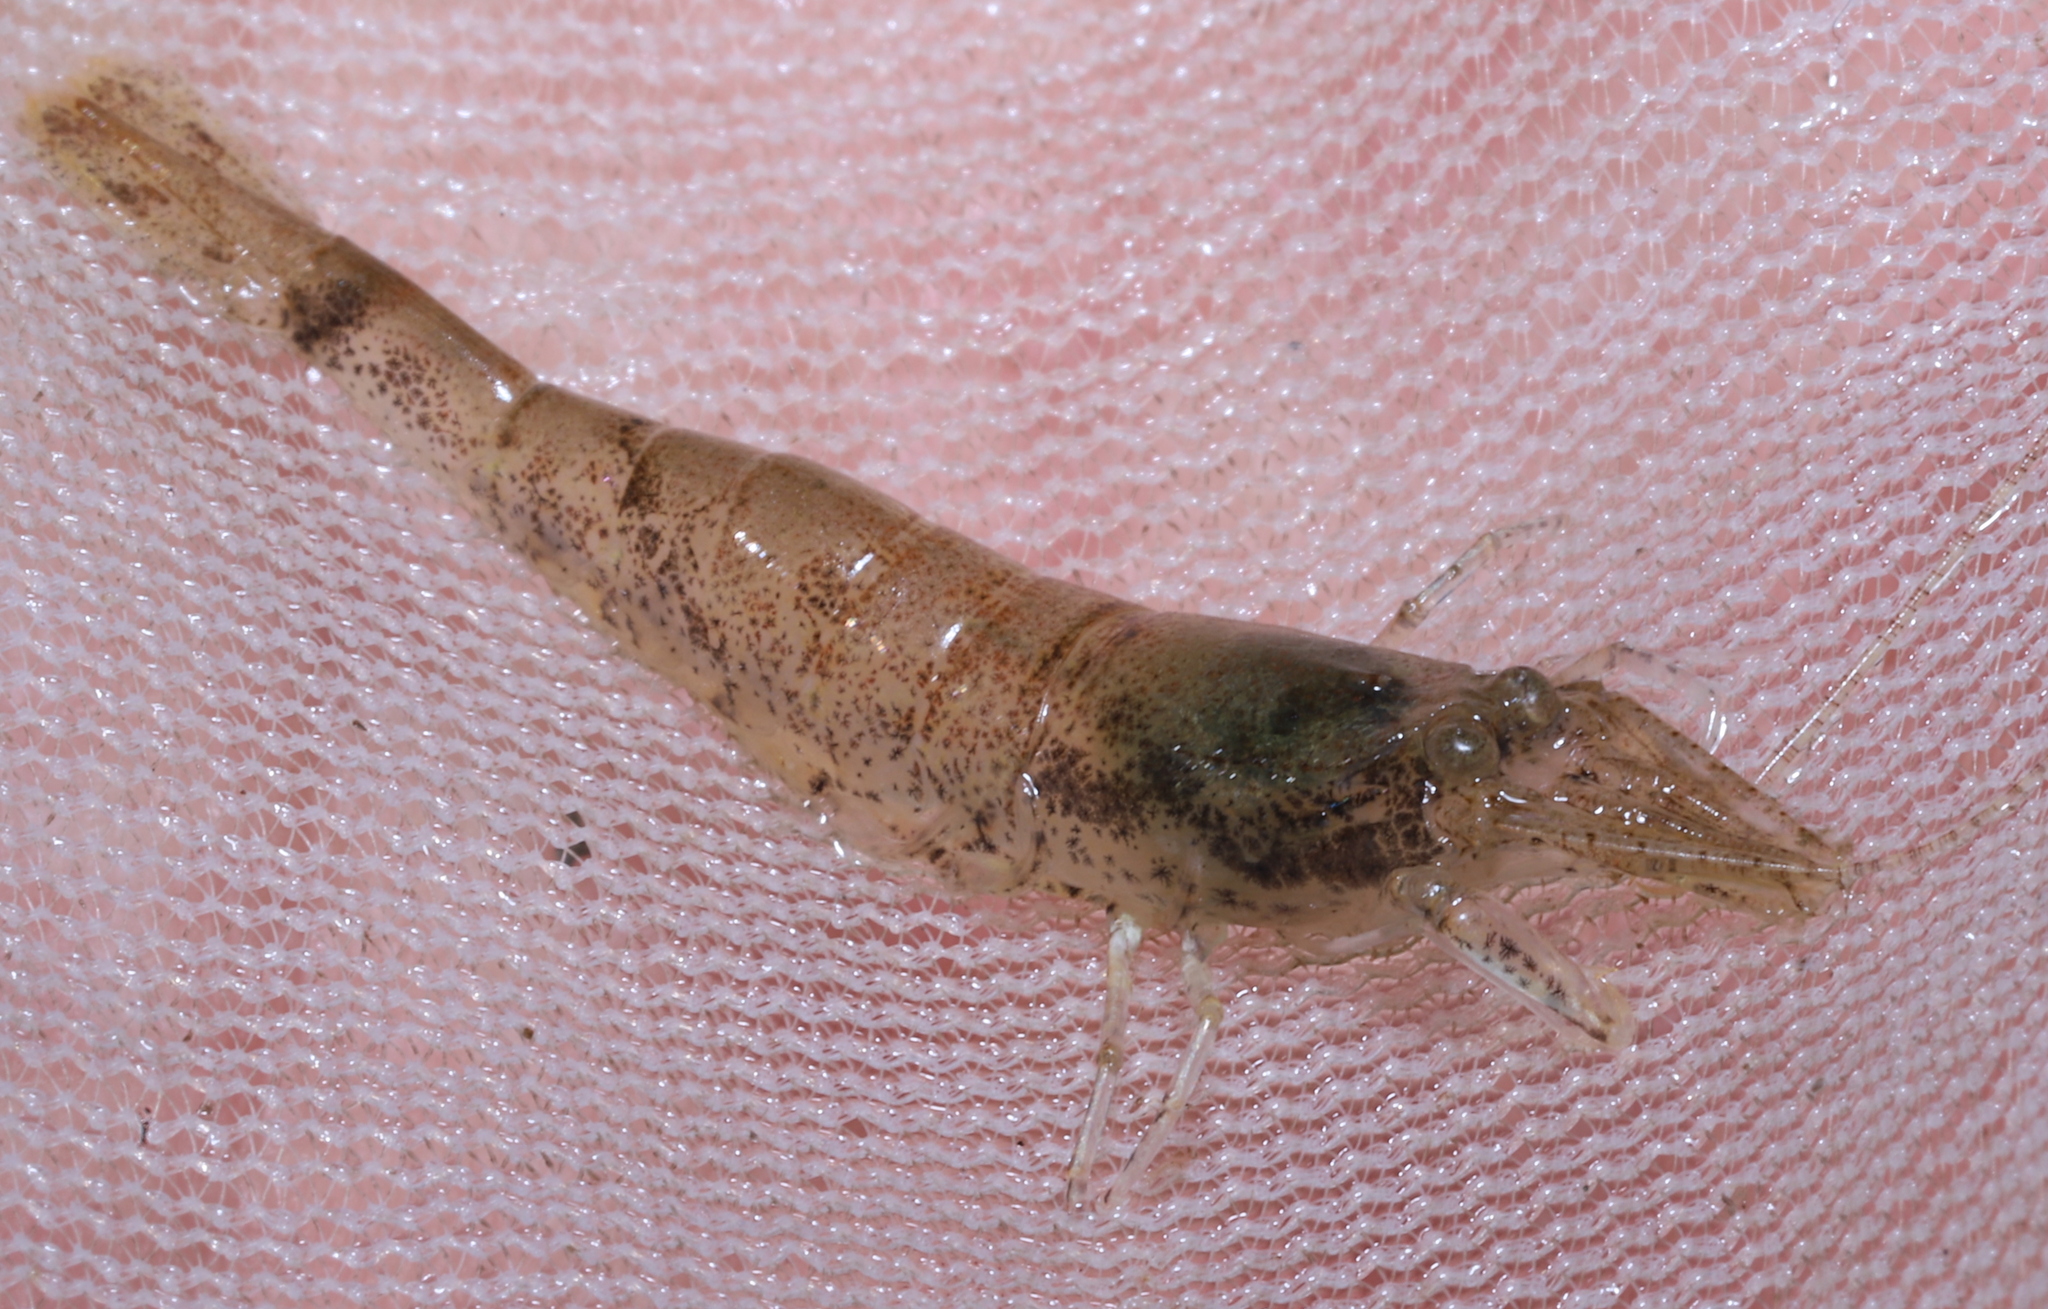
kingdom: Animalia
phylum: Arthropoda
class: Malacostraca
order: Decapoda
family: Crangonidae
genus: Crangon
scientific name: Crangon septemspinosa
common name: Bail shrimp
